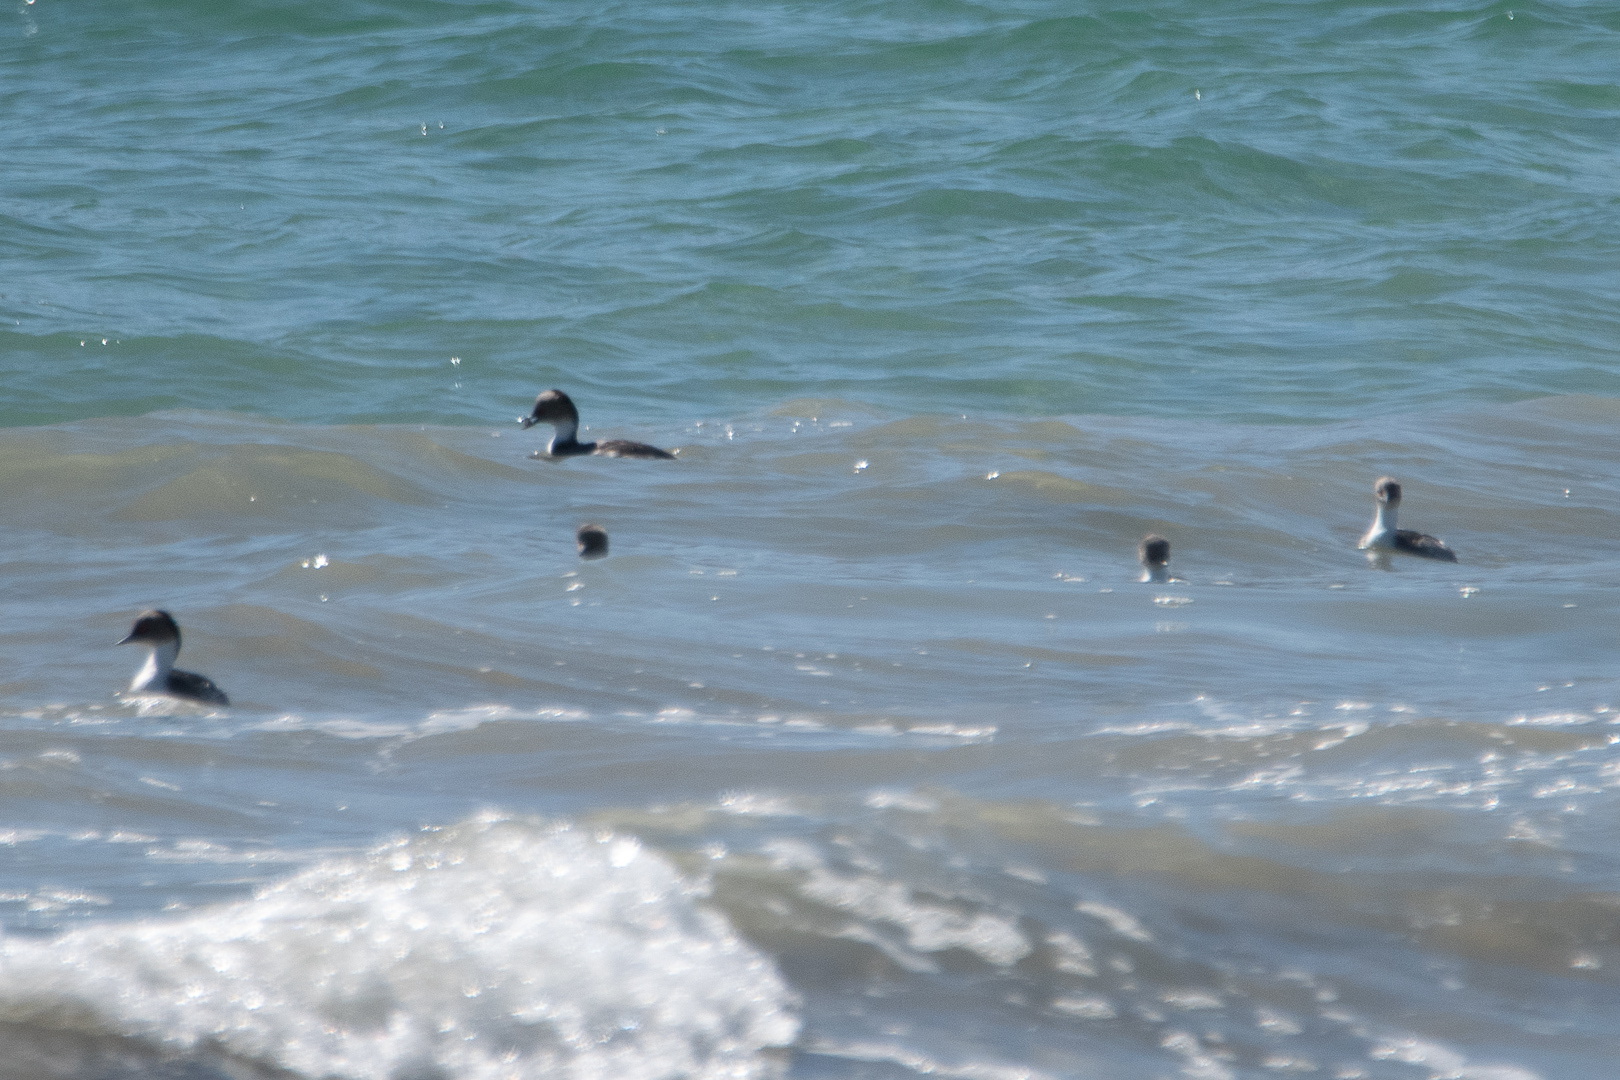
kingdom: Animalia
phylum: Chordata
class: Aves
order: Podicipediformes
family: Podicipedidae
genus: Podiceps
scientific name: Podiceps occipitalis
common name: Silvery grebe
